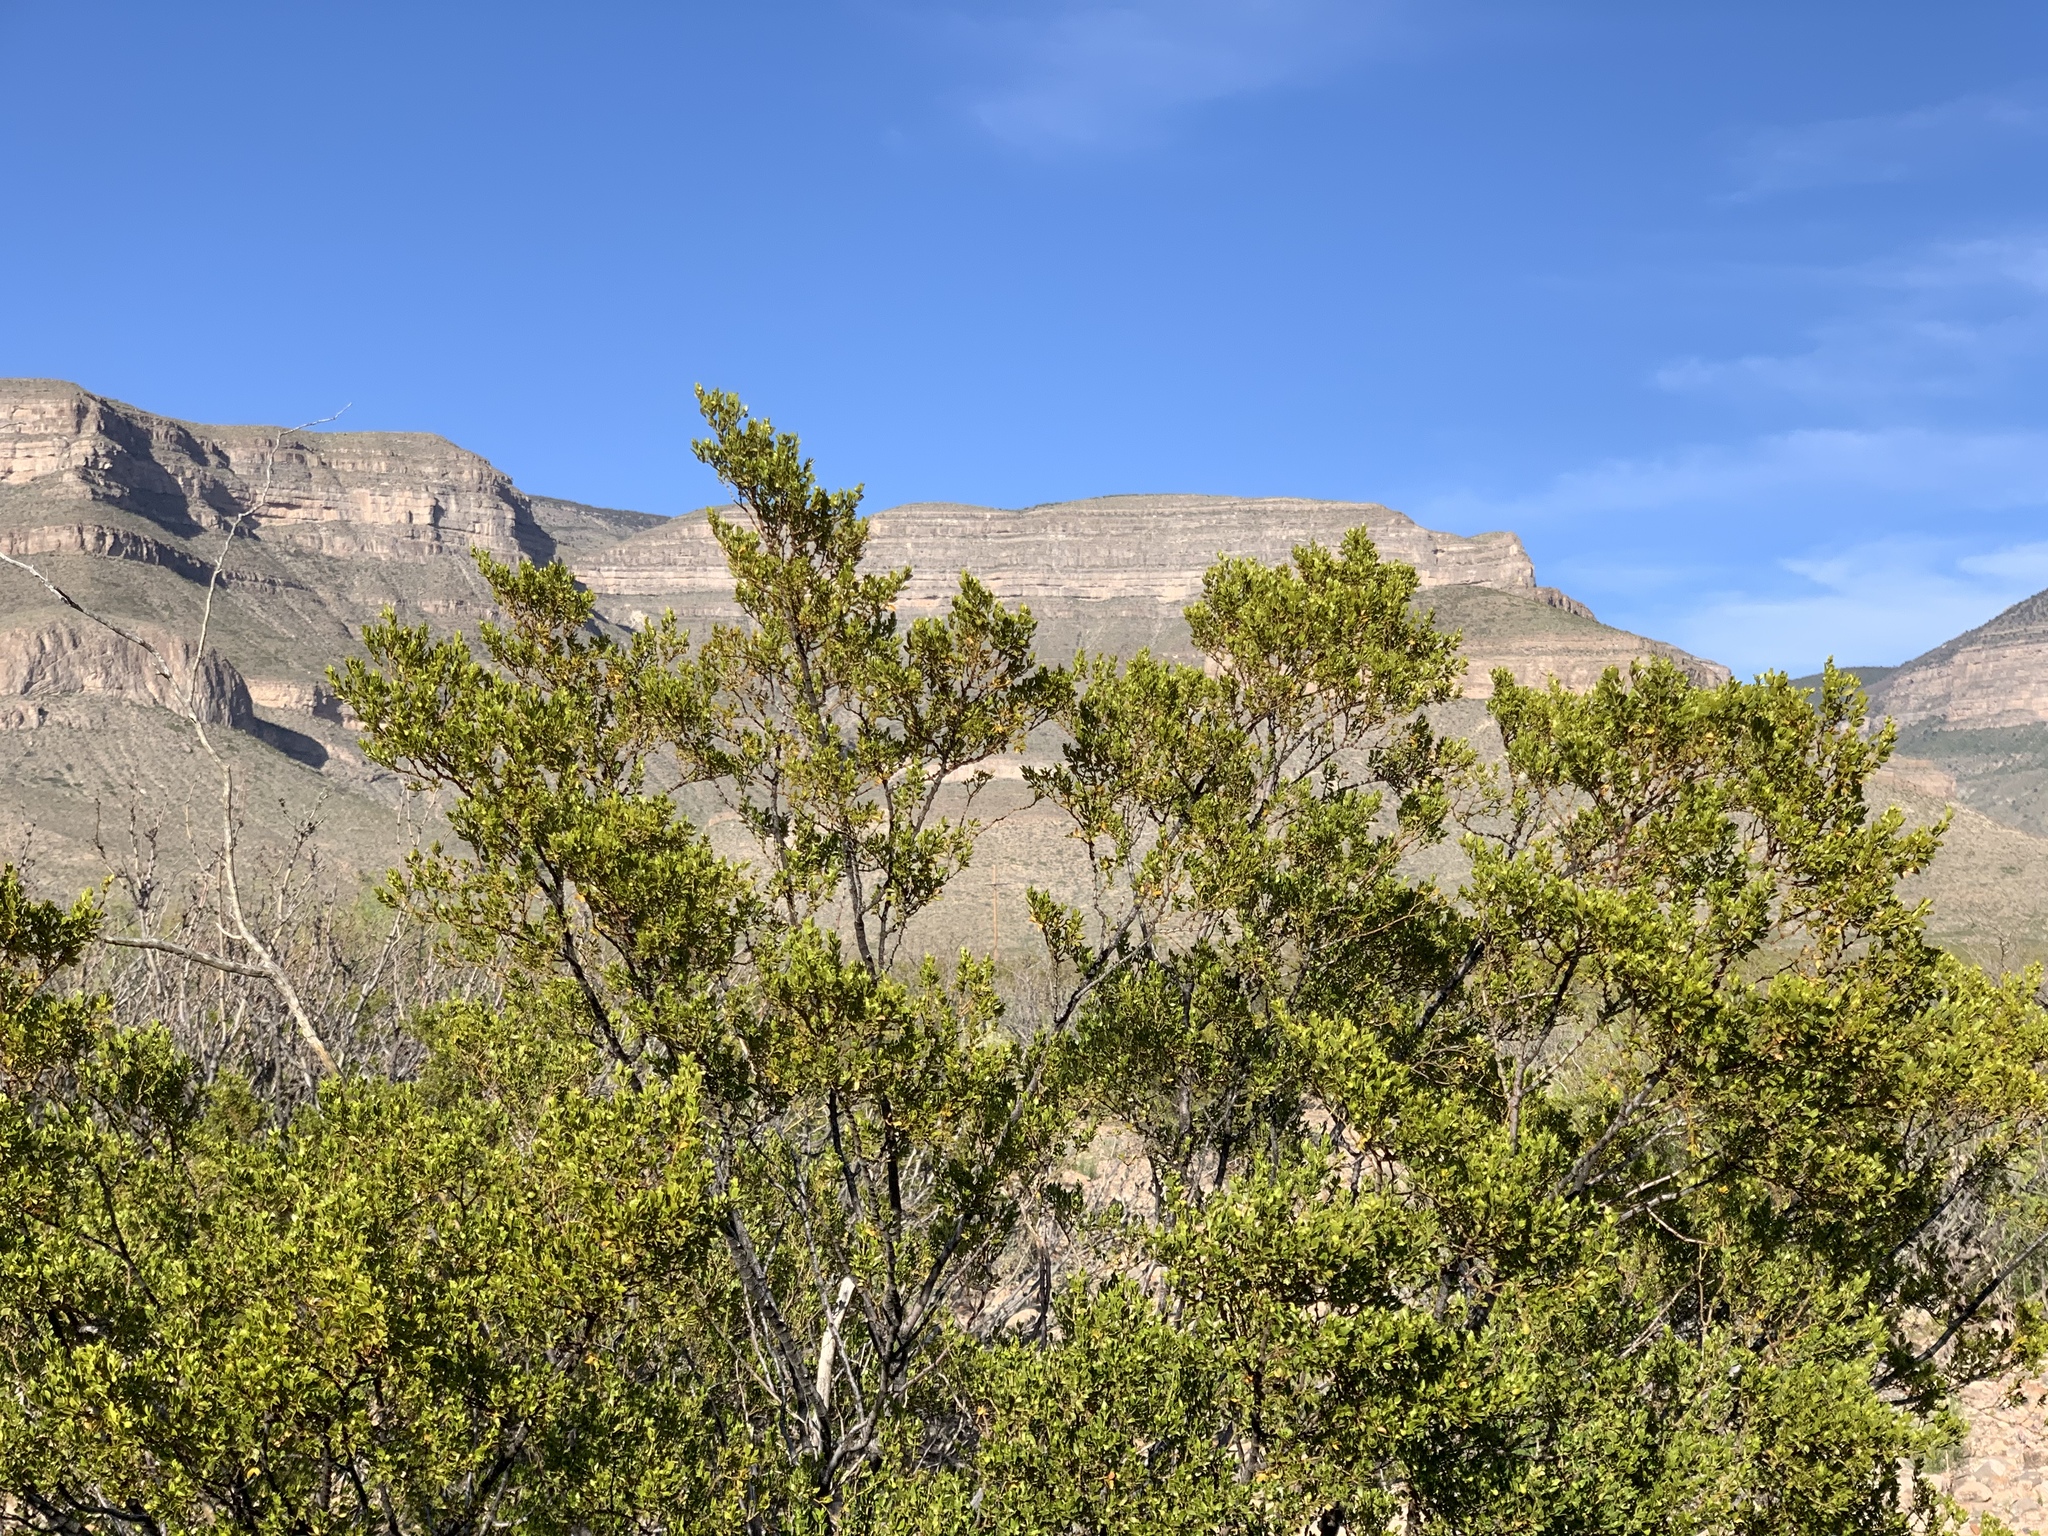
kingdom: Plantae
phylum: Tracheophyta
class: Magnoliopsida
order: Zygophyllales
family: Zygophyllaceae
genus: Larrea
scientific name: Larrea tridentata
